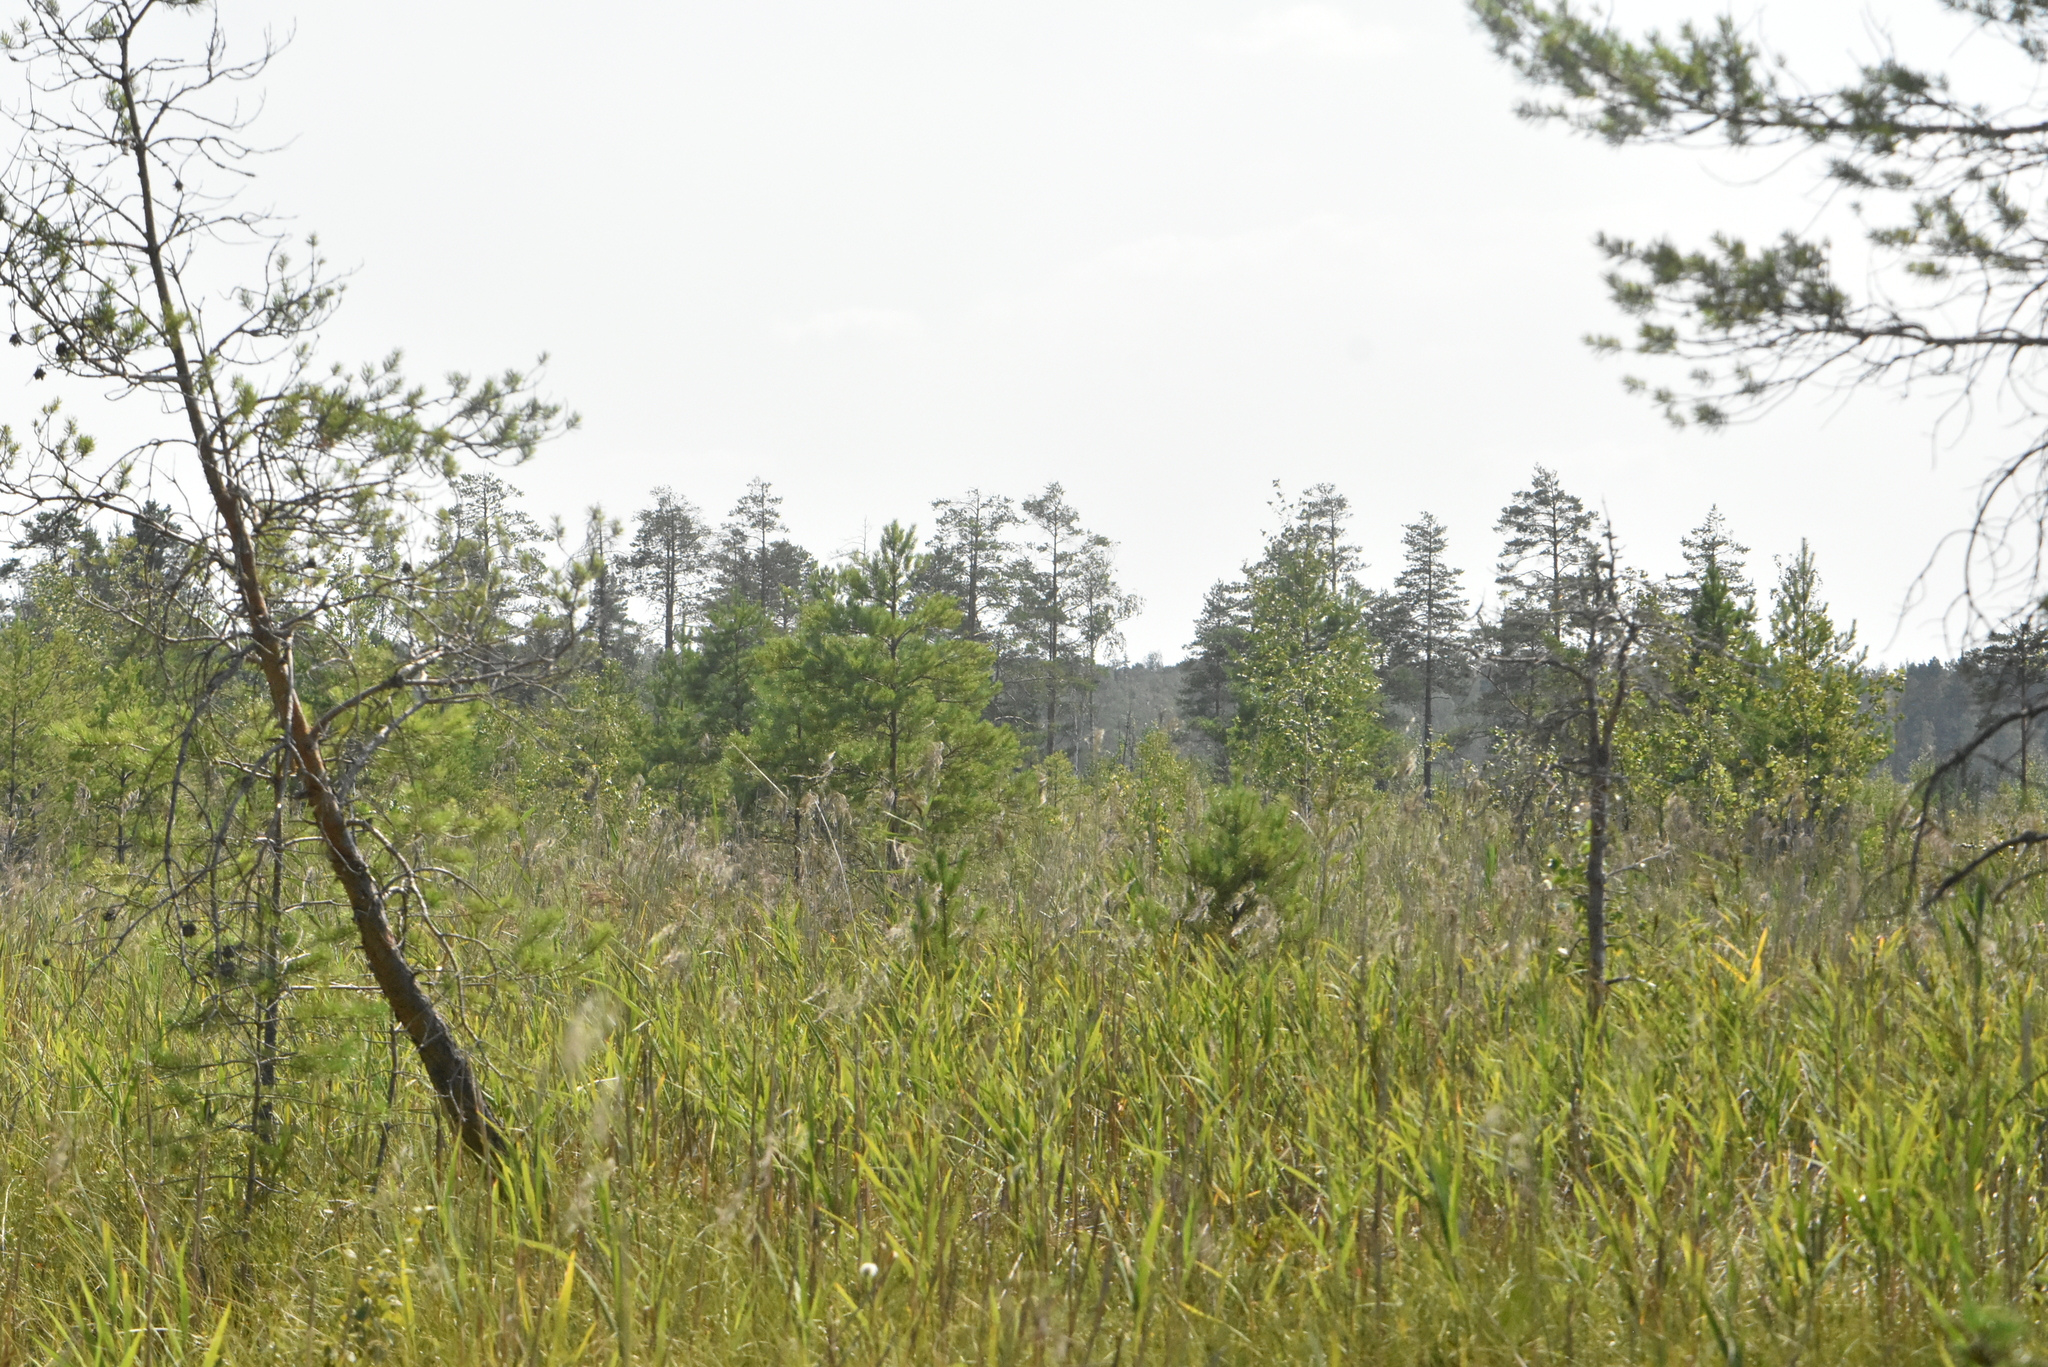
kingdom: Plantae
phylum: Tracheophyta
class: Pinopsida
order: Pinales
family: Pinaceae
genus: Pinus
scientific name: Pinus sylvestris
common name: Scots pine
